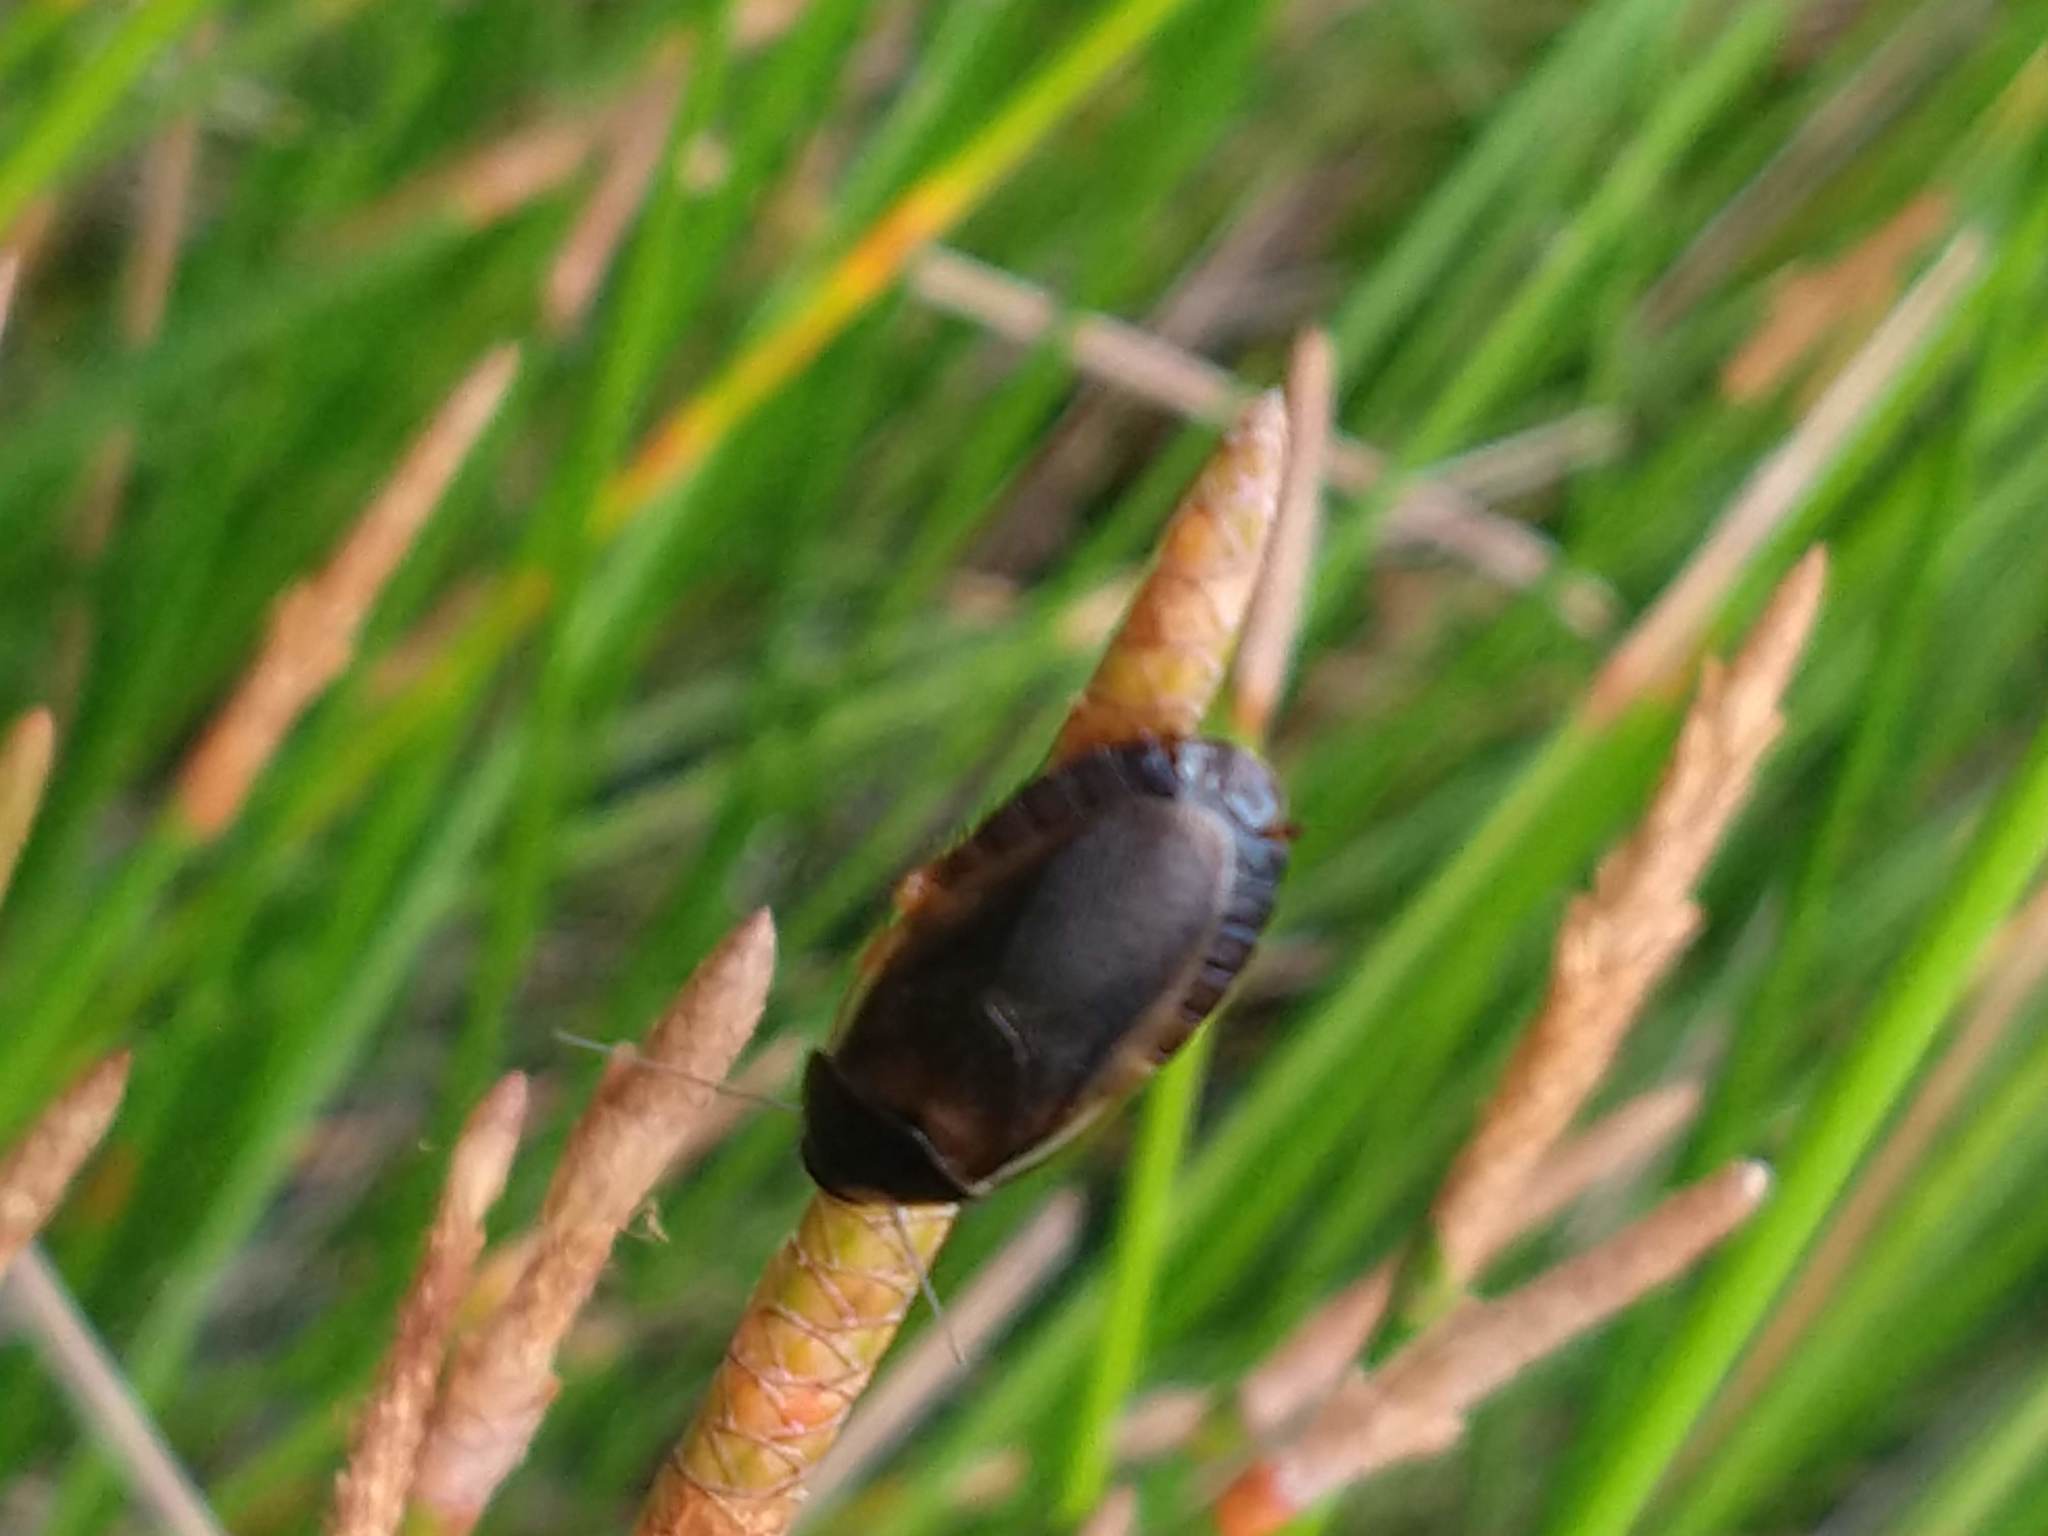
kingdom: Animalia
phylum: Arthropoda
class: Insecta
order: Blattodea
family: Blaberidae
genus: Pycnoscelus
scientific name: Pycnoscelus surinamensis
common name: Surinam cockroach
